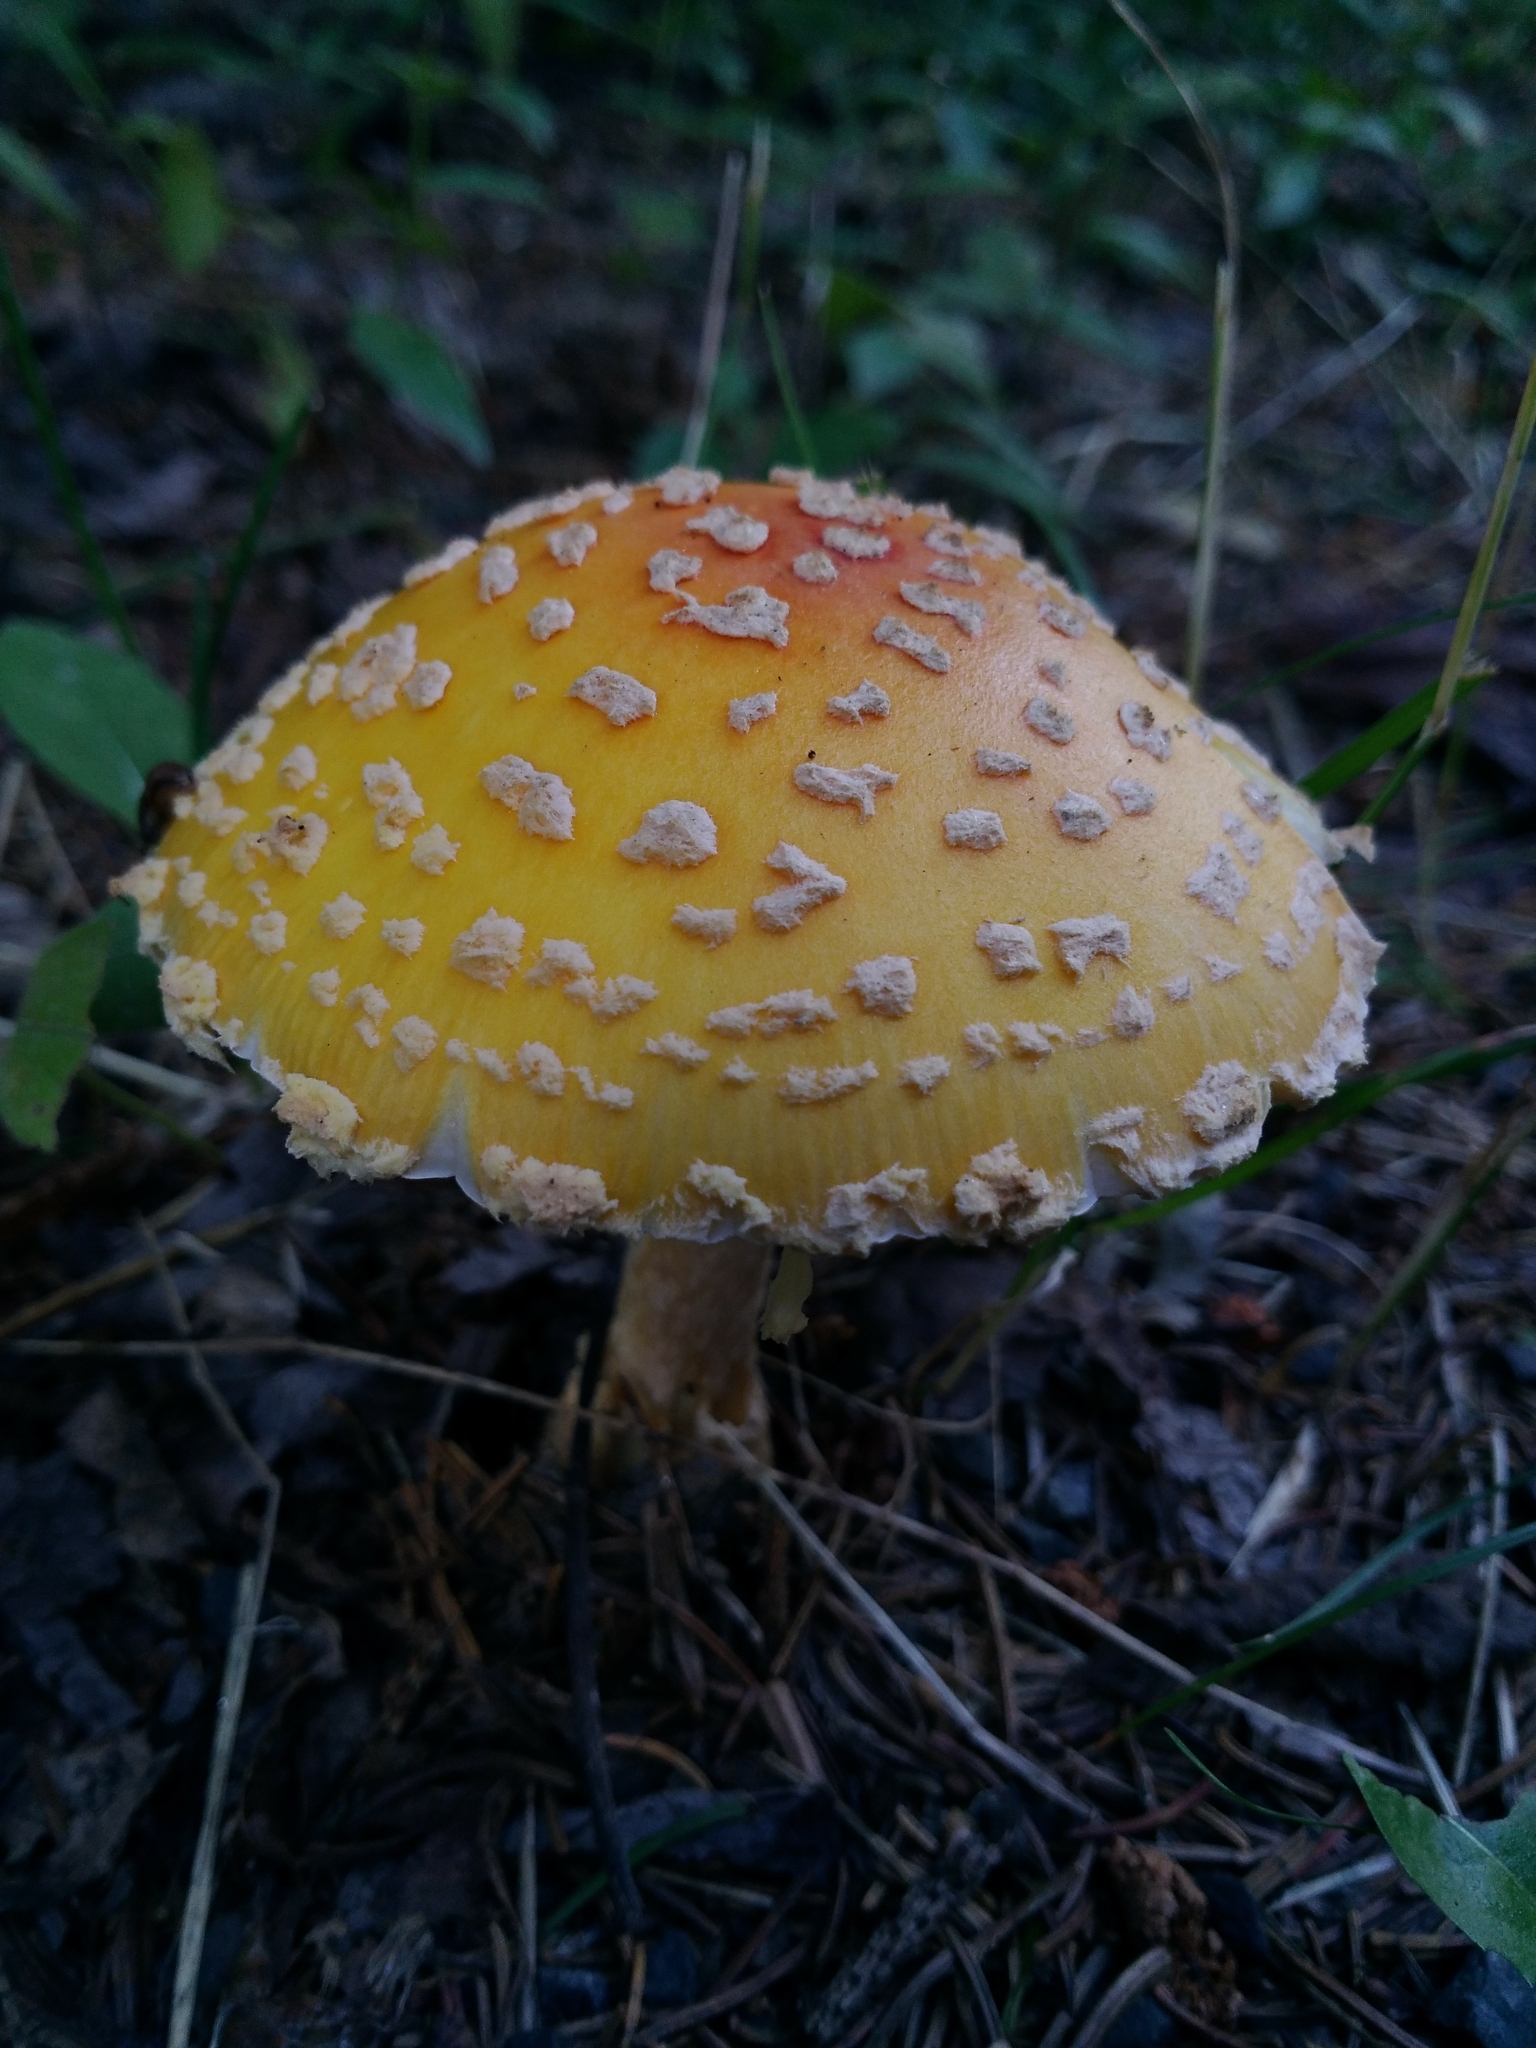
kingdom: Fungi
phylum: Basidiomycota
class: Agaricomycetes
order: Agaricales
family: Amanitaceae
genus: Amanita
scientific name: Amanita muscaria
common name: Fly agaric
